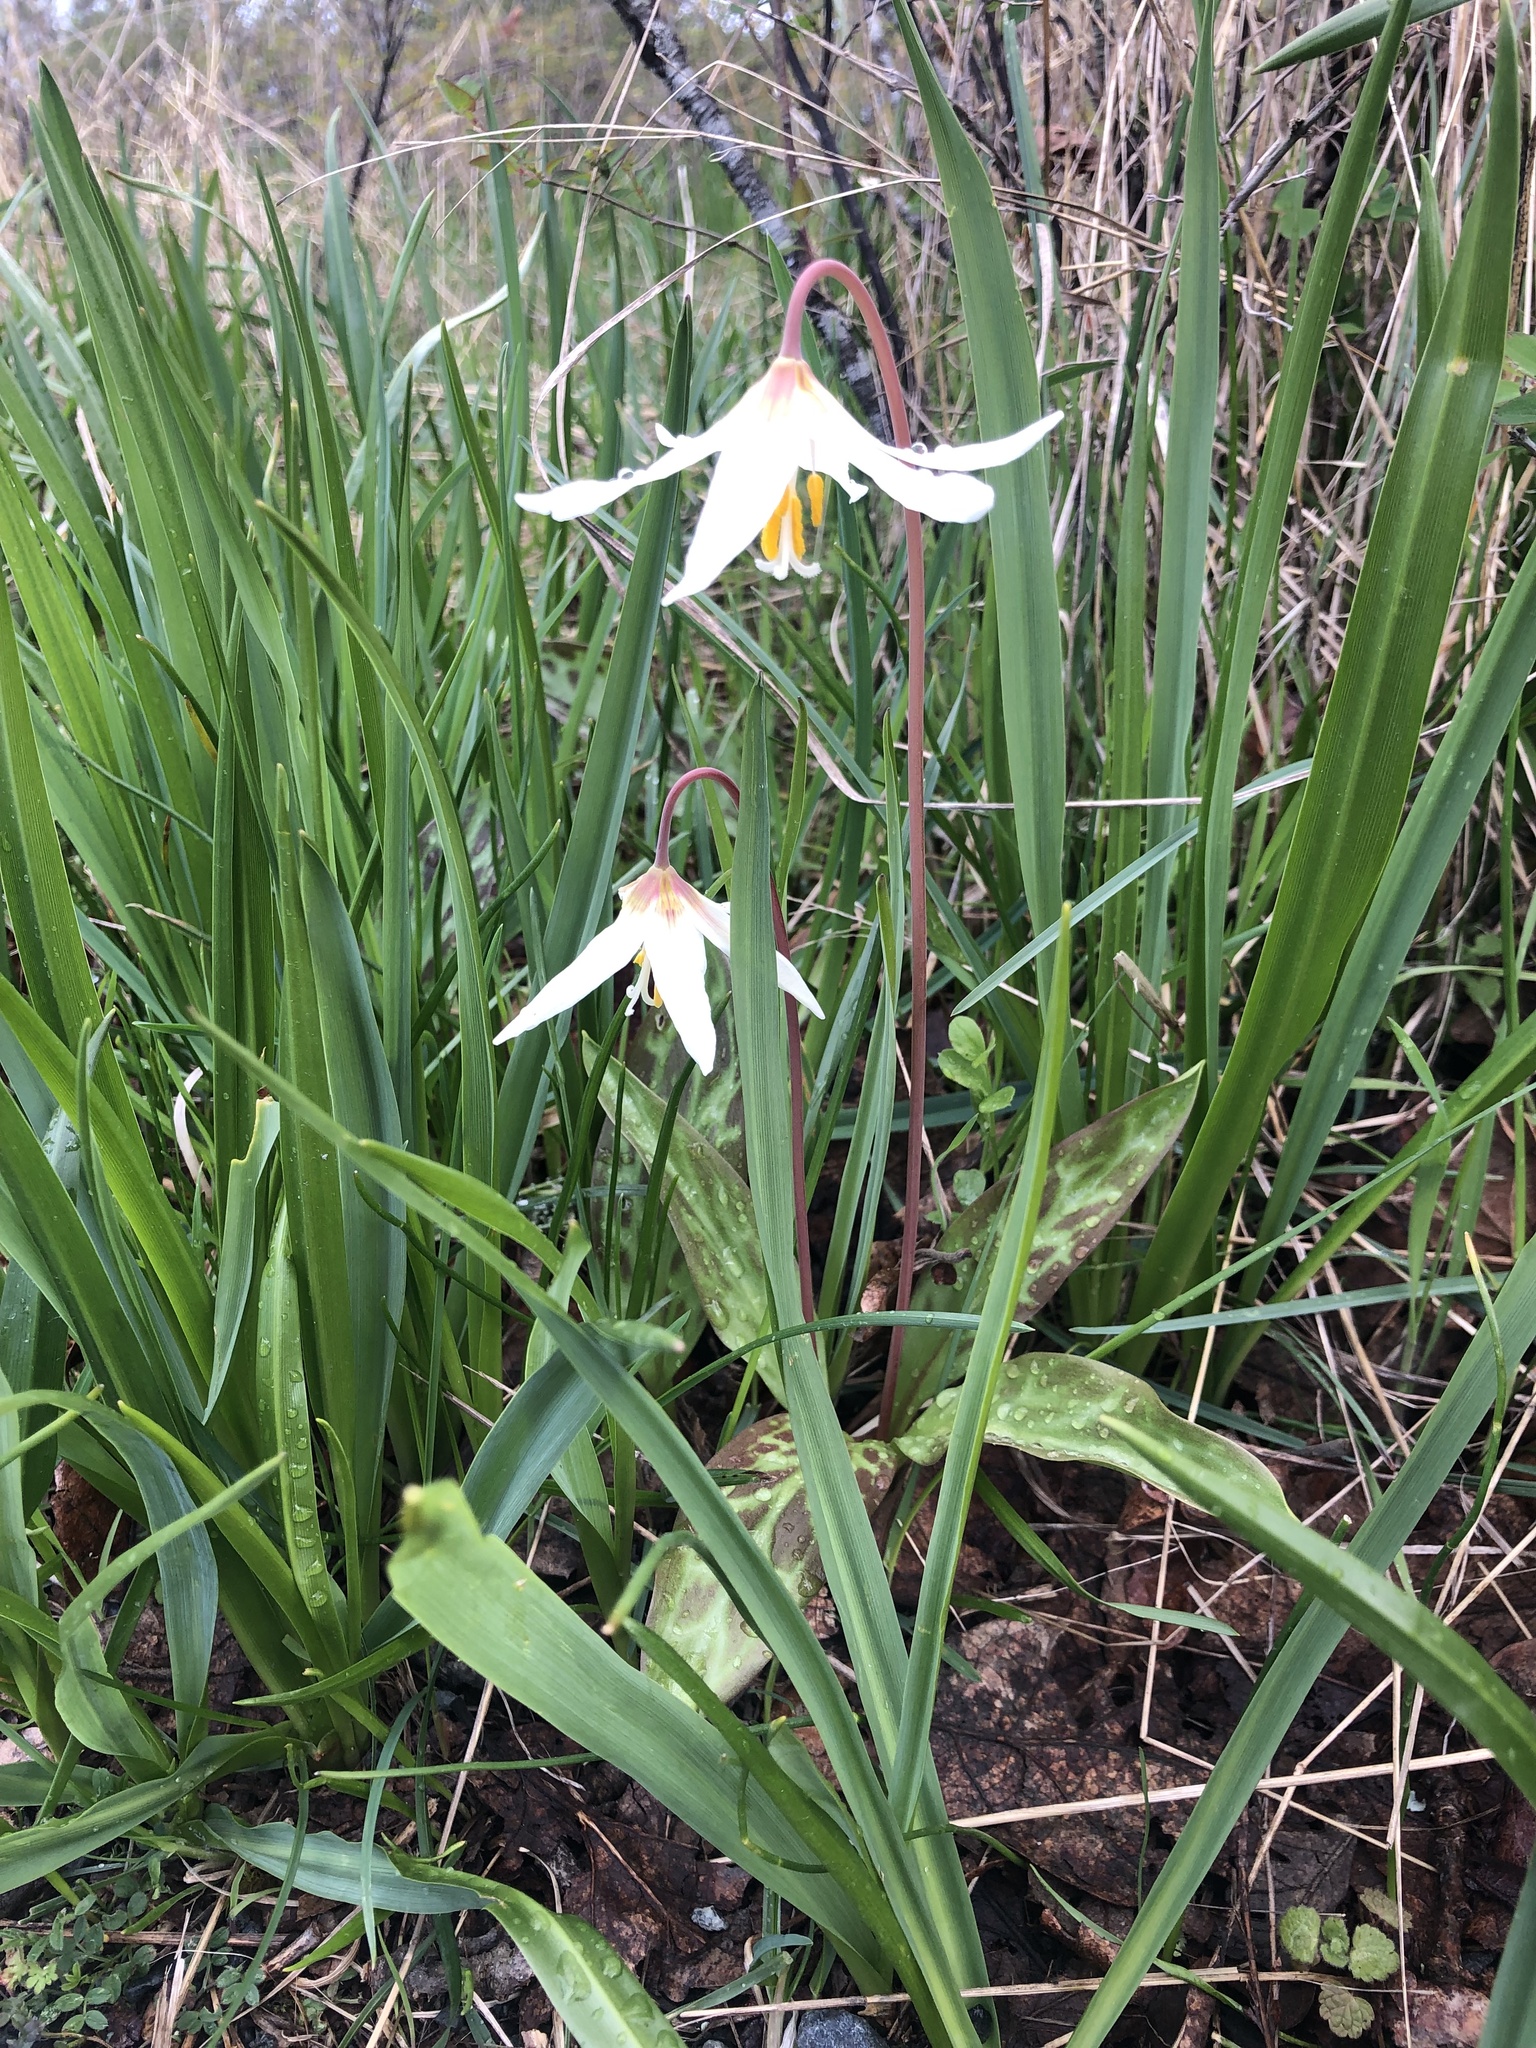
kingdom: Plantae
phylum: Tracheophyta
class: Liliopsida
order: Liliales
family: Liliaceae
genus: Erythronium
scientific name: Erythronium oregonum
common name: Giant adder's-tongue
